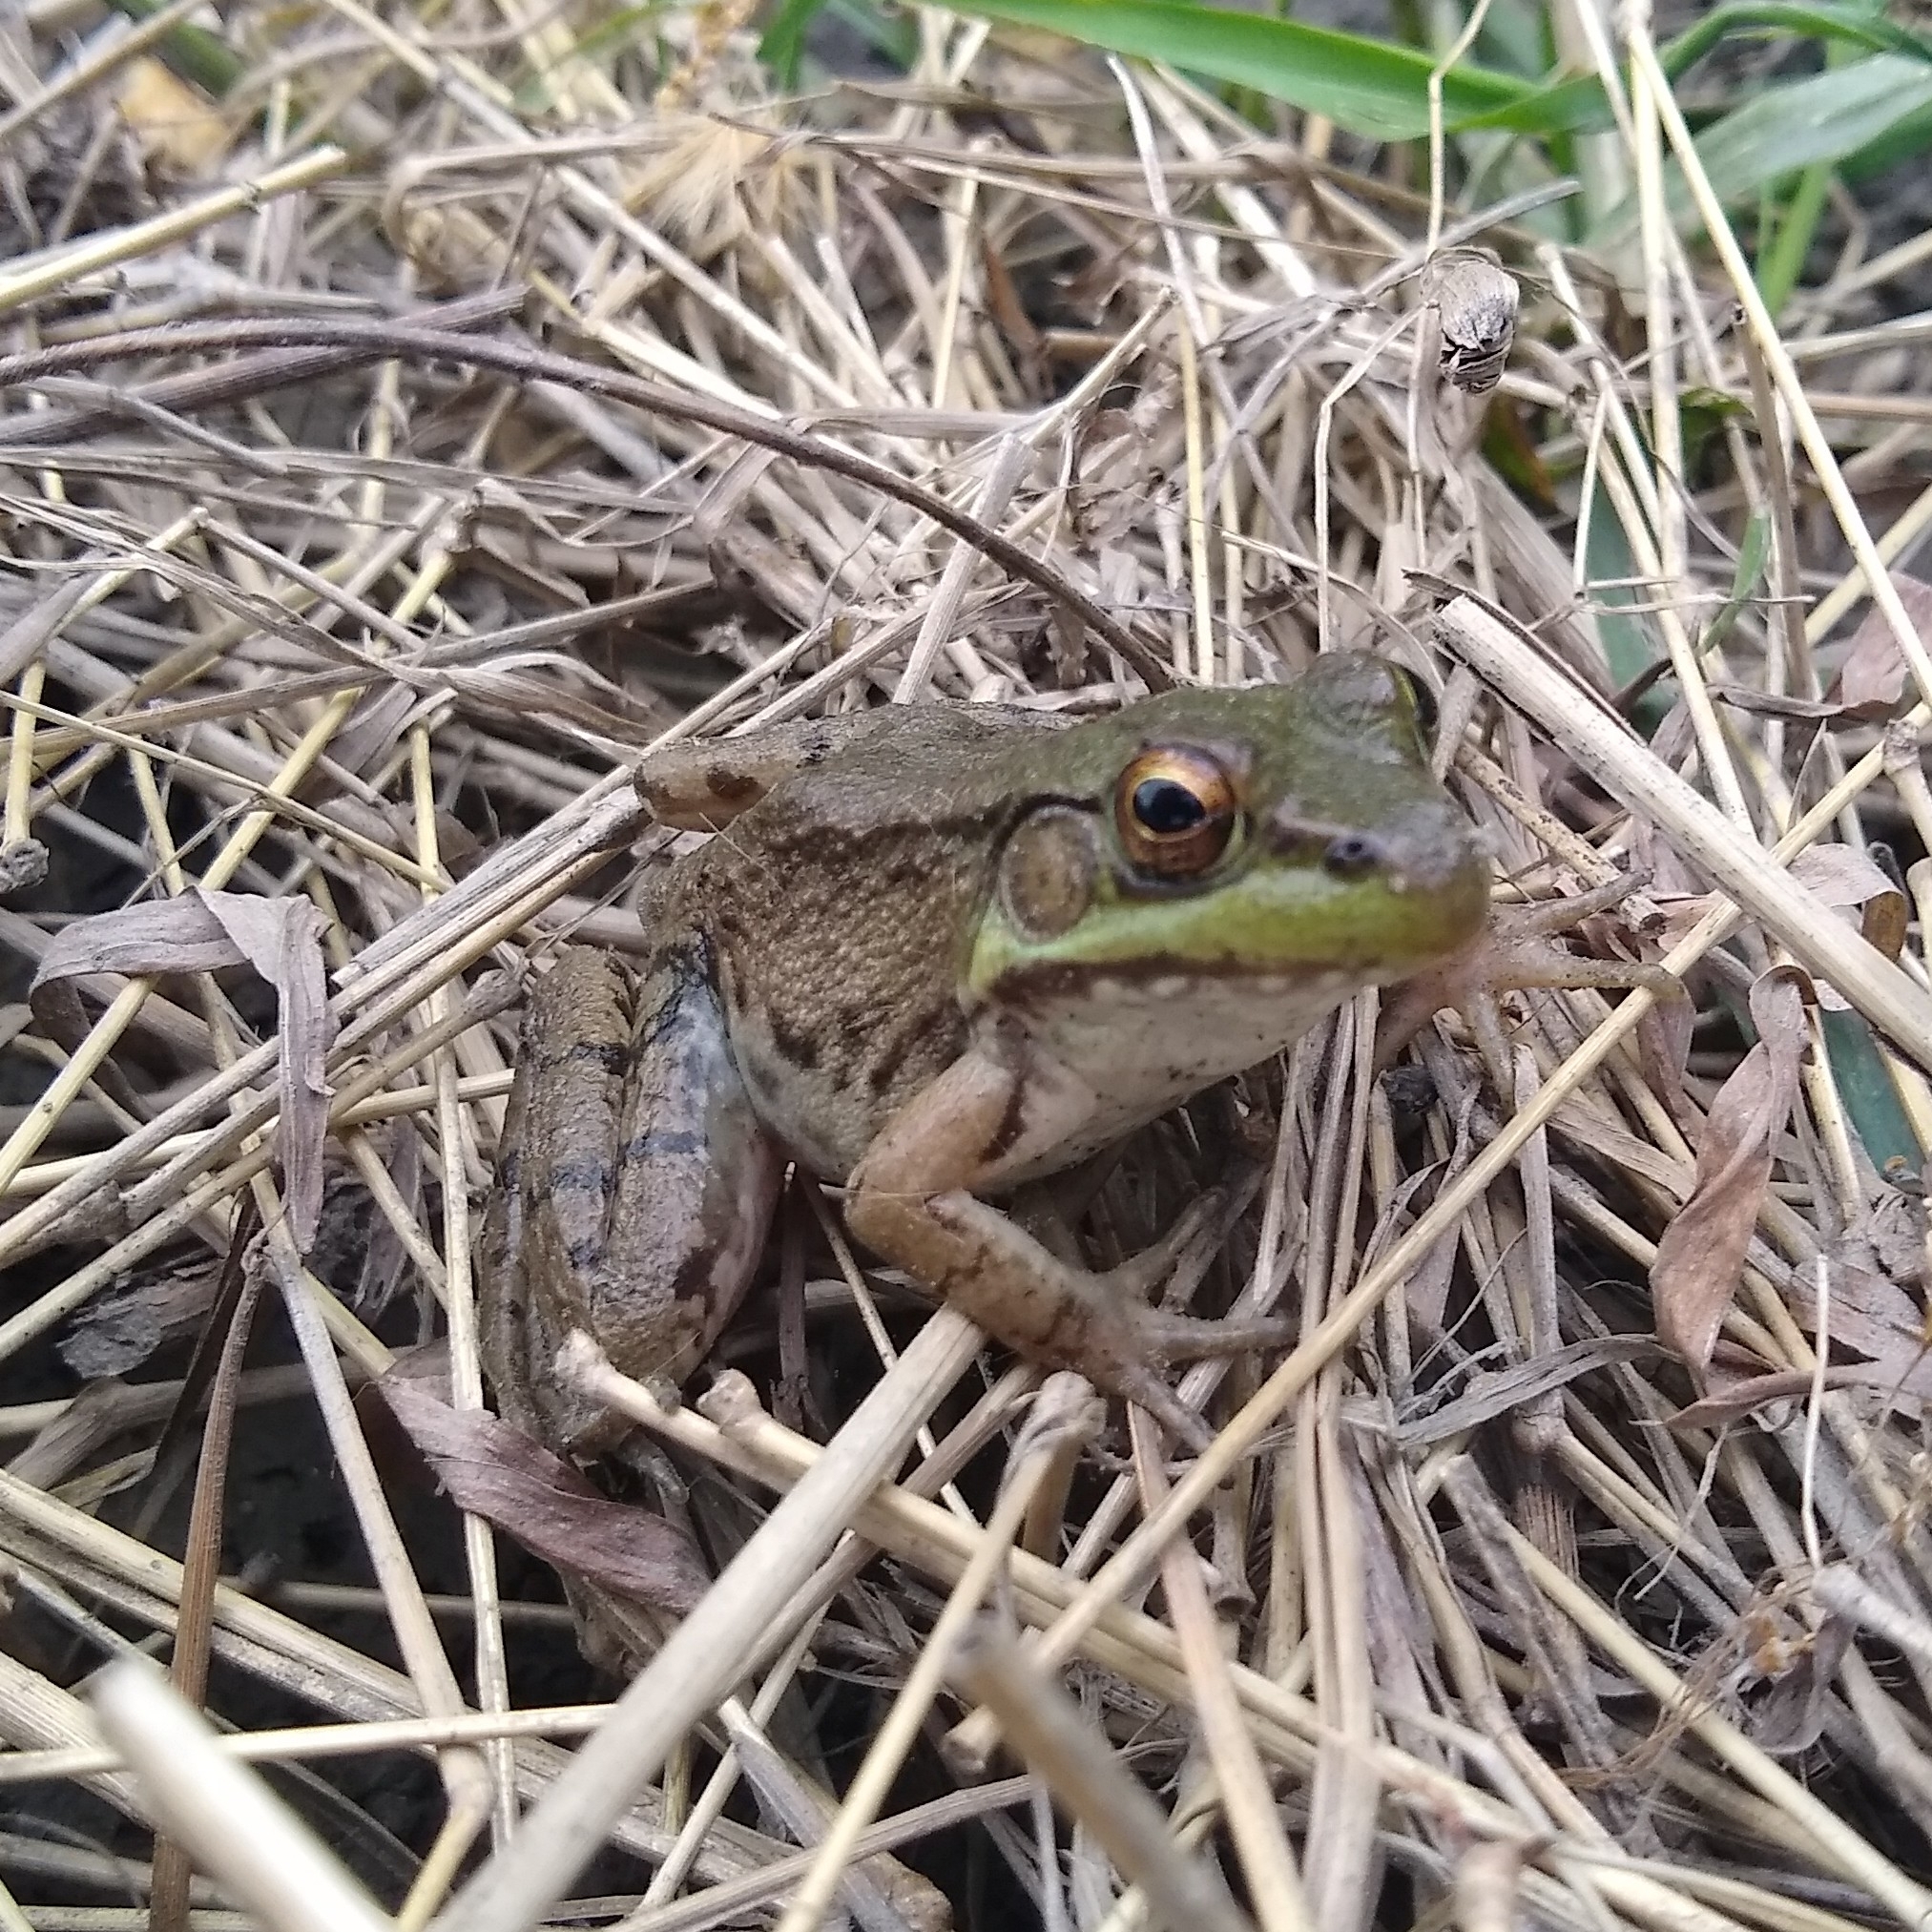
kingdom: Animalia
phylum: Chordata
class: Amphibia
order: Anura
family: Ranidae
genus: Lithobates
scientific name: Lithobates clamitans
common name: Green frog
